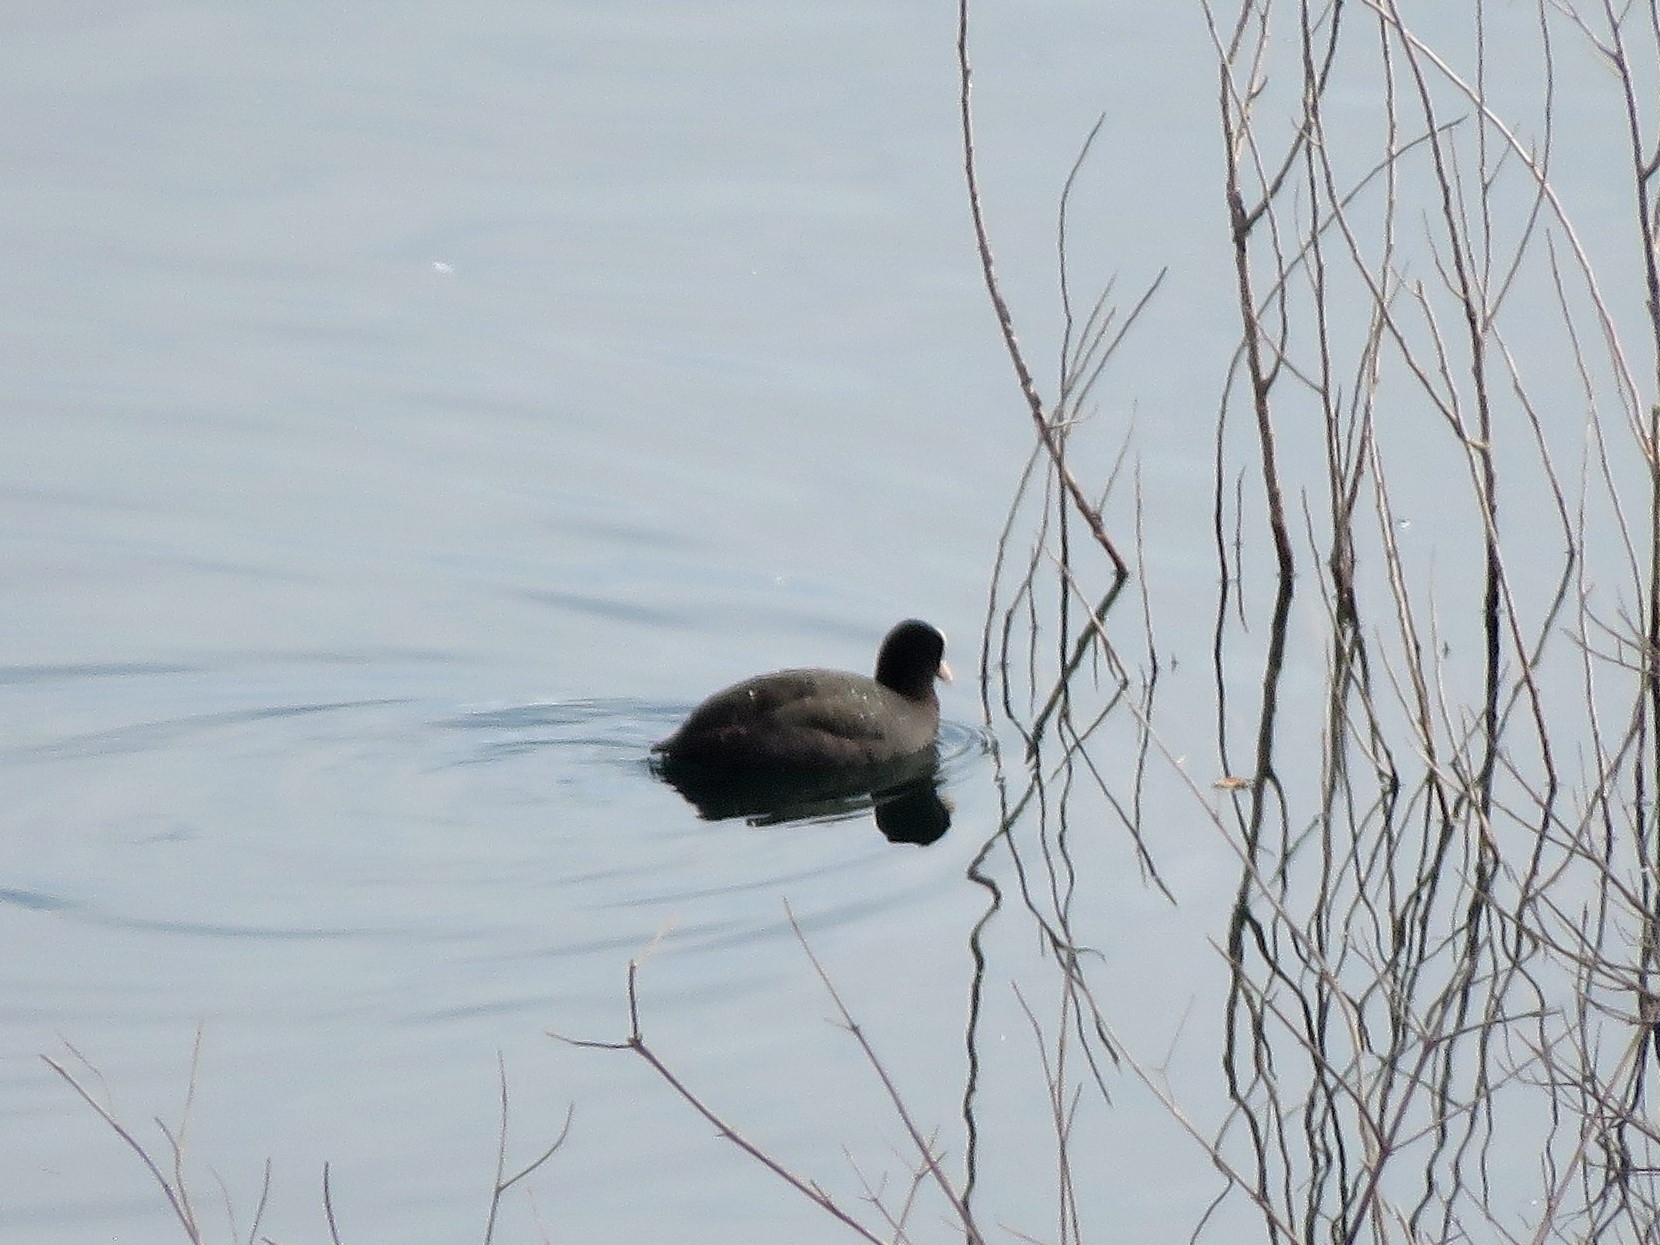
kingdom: Animalia
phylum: Chordata
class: Aves
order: Gruiformes
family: Rallidae
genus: Fulica
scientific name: Fulica atra
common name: Eurasian coot
